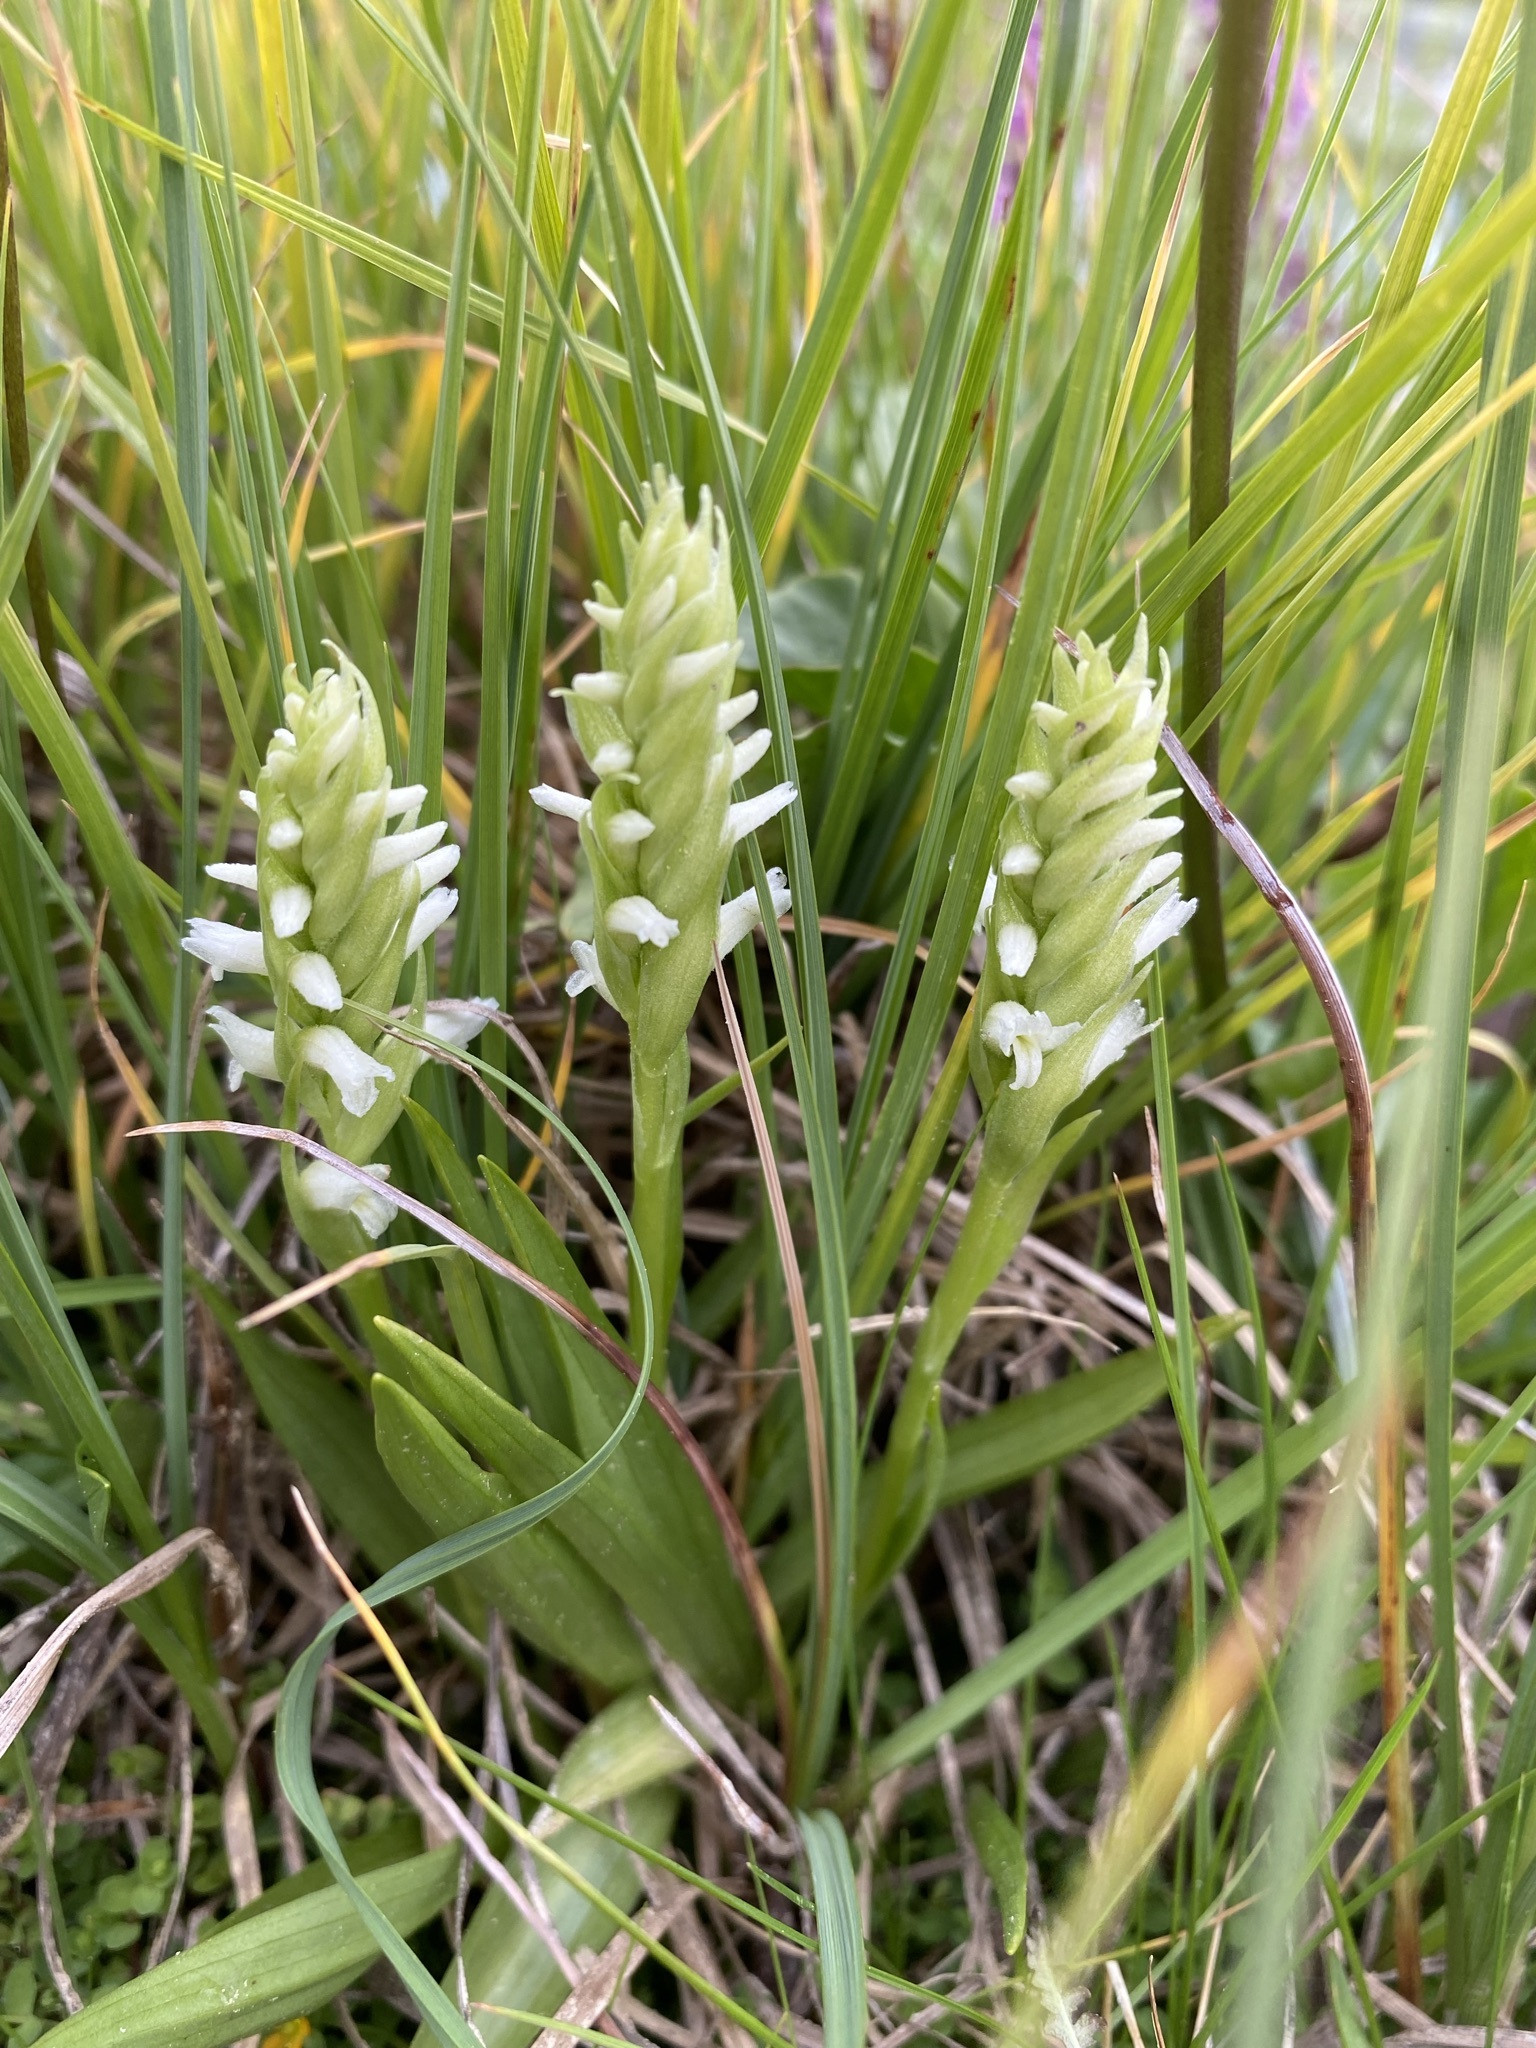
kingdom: Plantae
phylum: Tracheophyta
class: Liliopsida
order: Asparagales
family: Orchidaceae
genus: Spiranthes
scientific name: Spiranthes romanzoffiana
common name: Irish lady's-tresses
